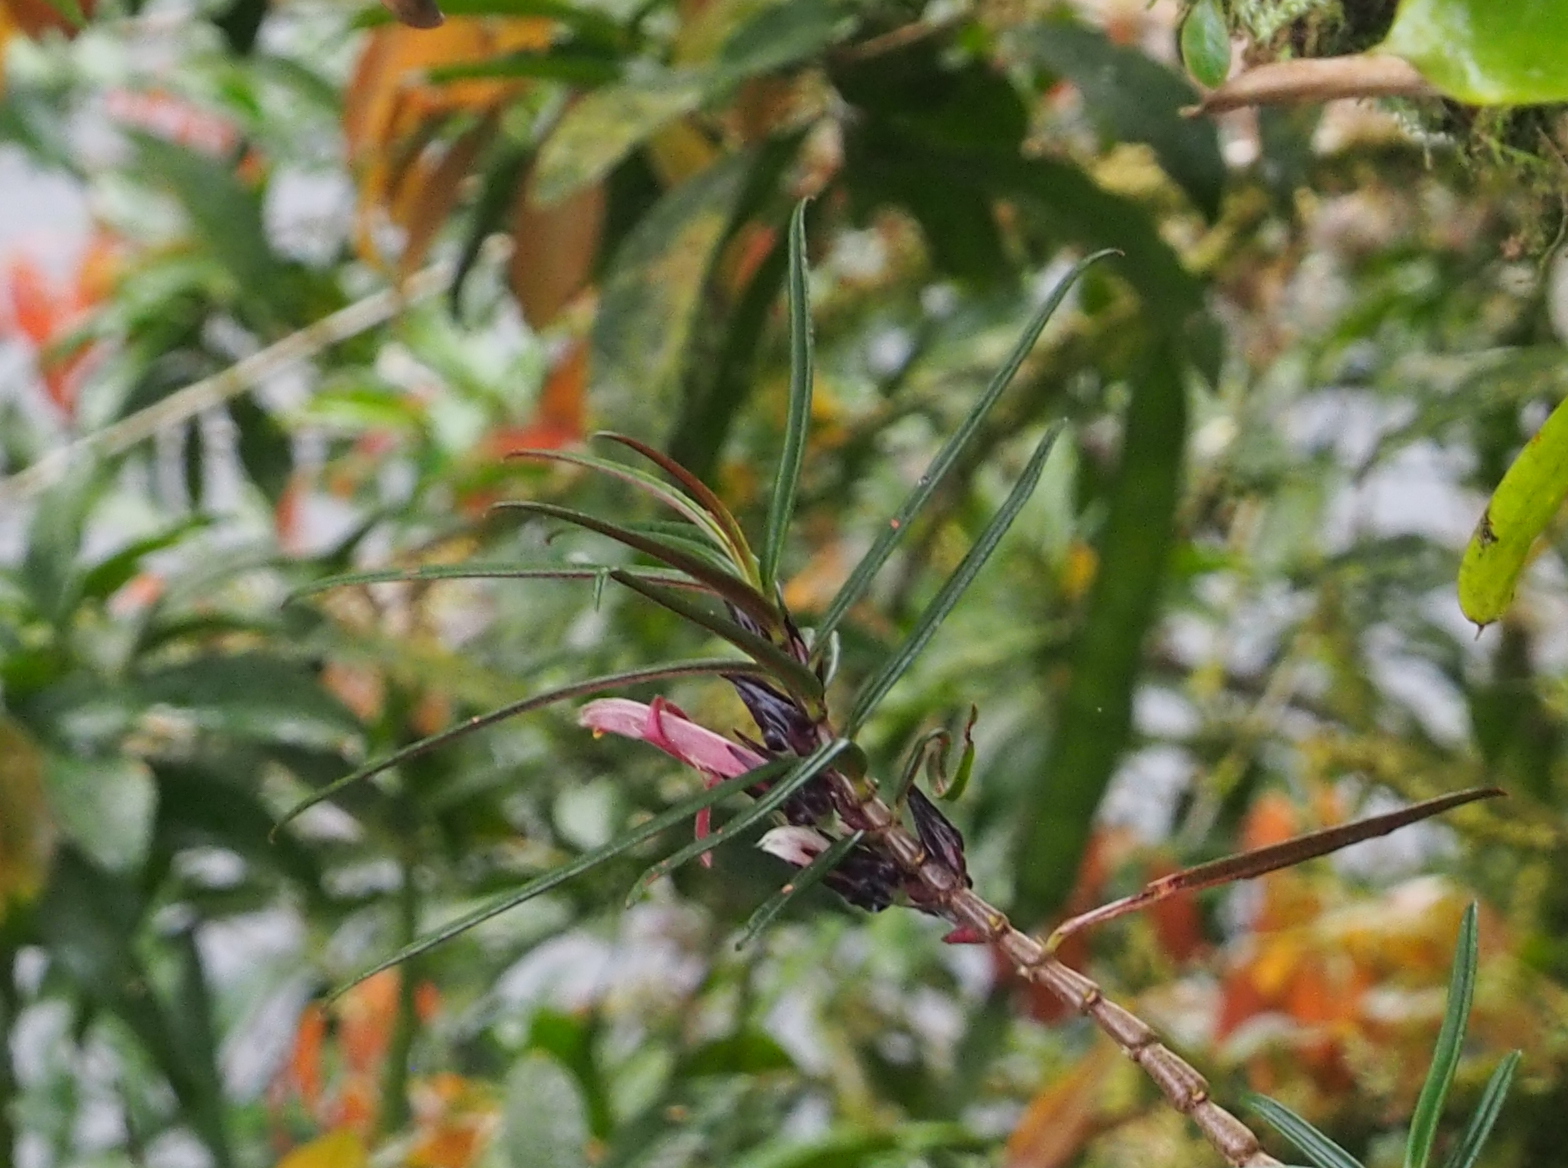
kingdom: Plantae
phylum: Tracheophyta
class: Magnoliopsida
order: Lamiales
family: Gesneriaceae
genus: Columnea
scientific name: Columnea linearis
